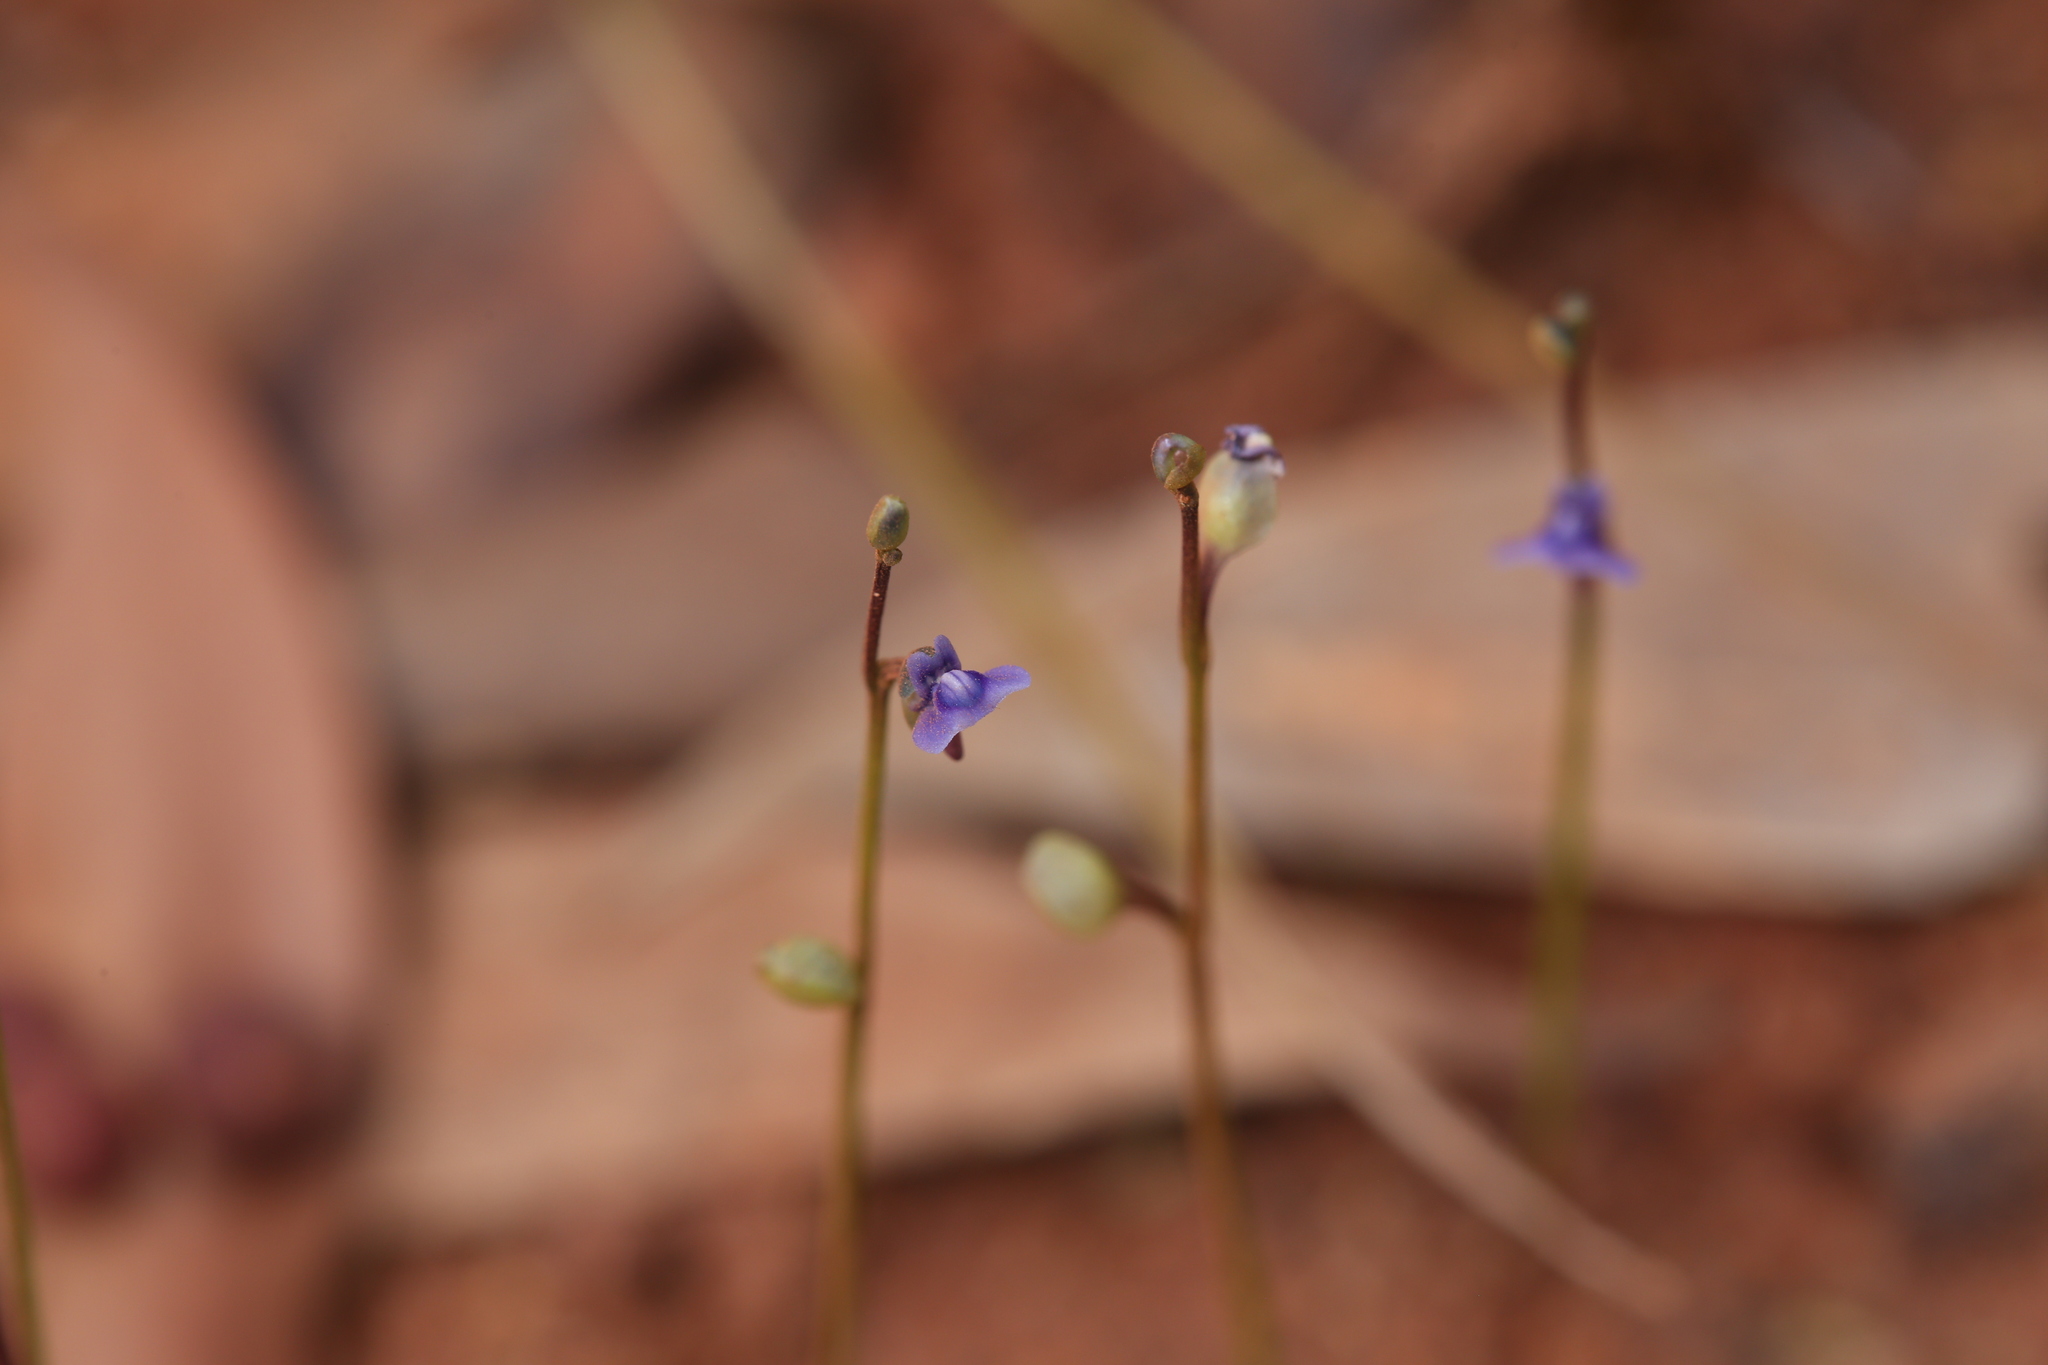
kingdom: Plantae
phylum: Tracheophyta
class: Magnoliopsida
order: Lamiales
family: Lentibulariaceae
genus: Utricularia
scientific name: Utricularia uliginosa
